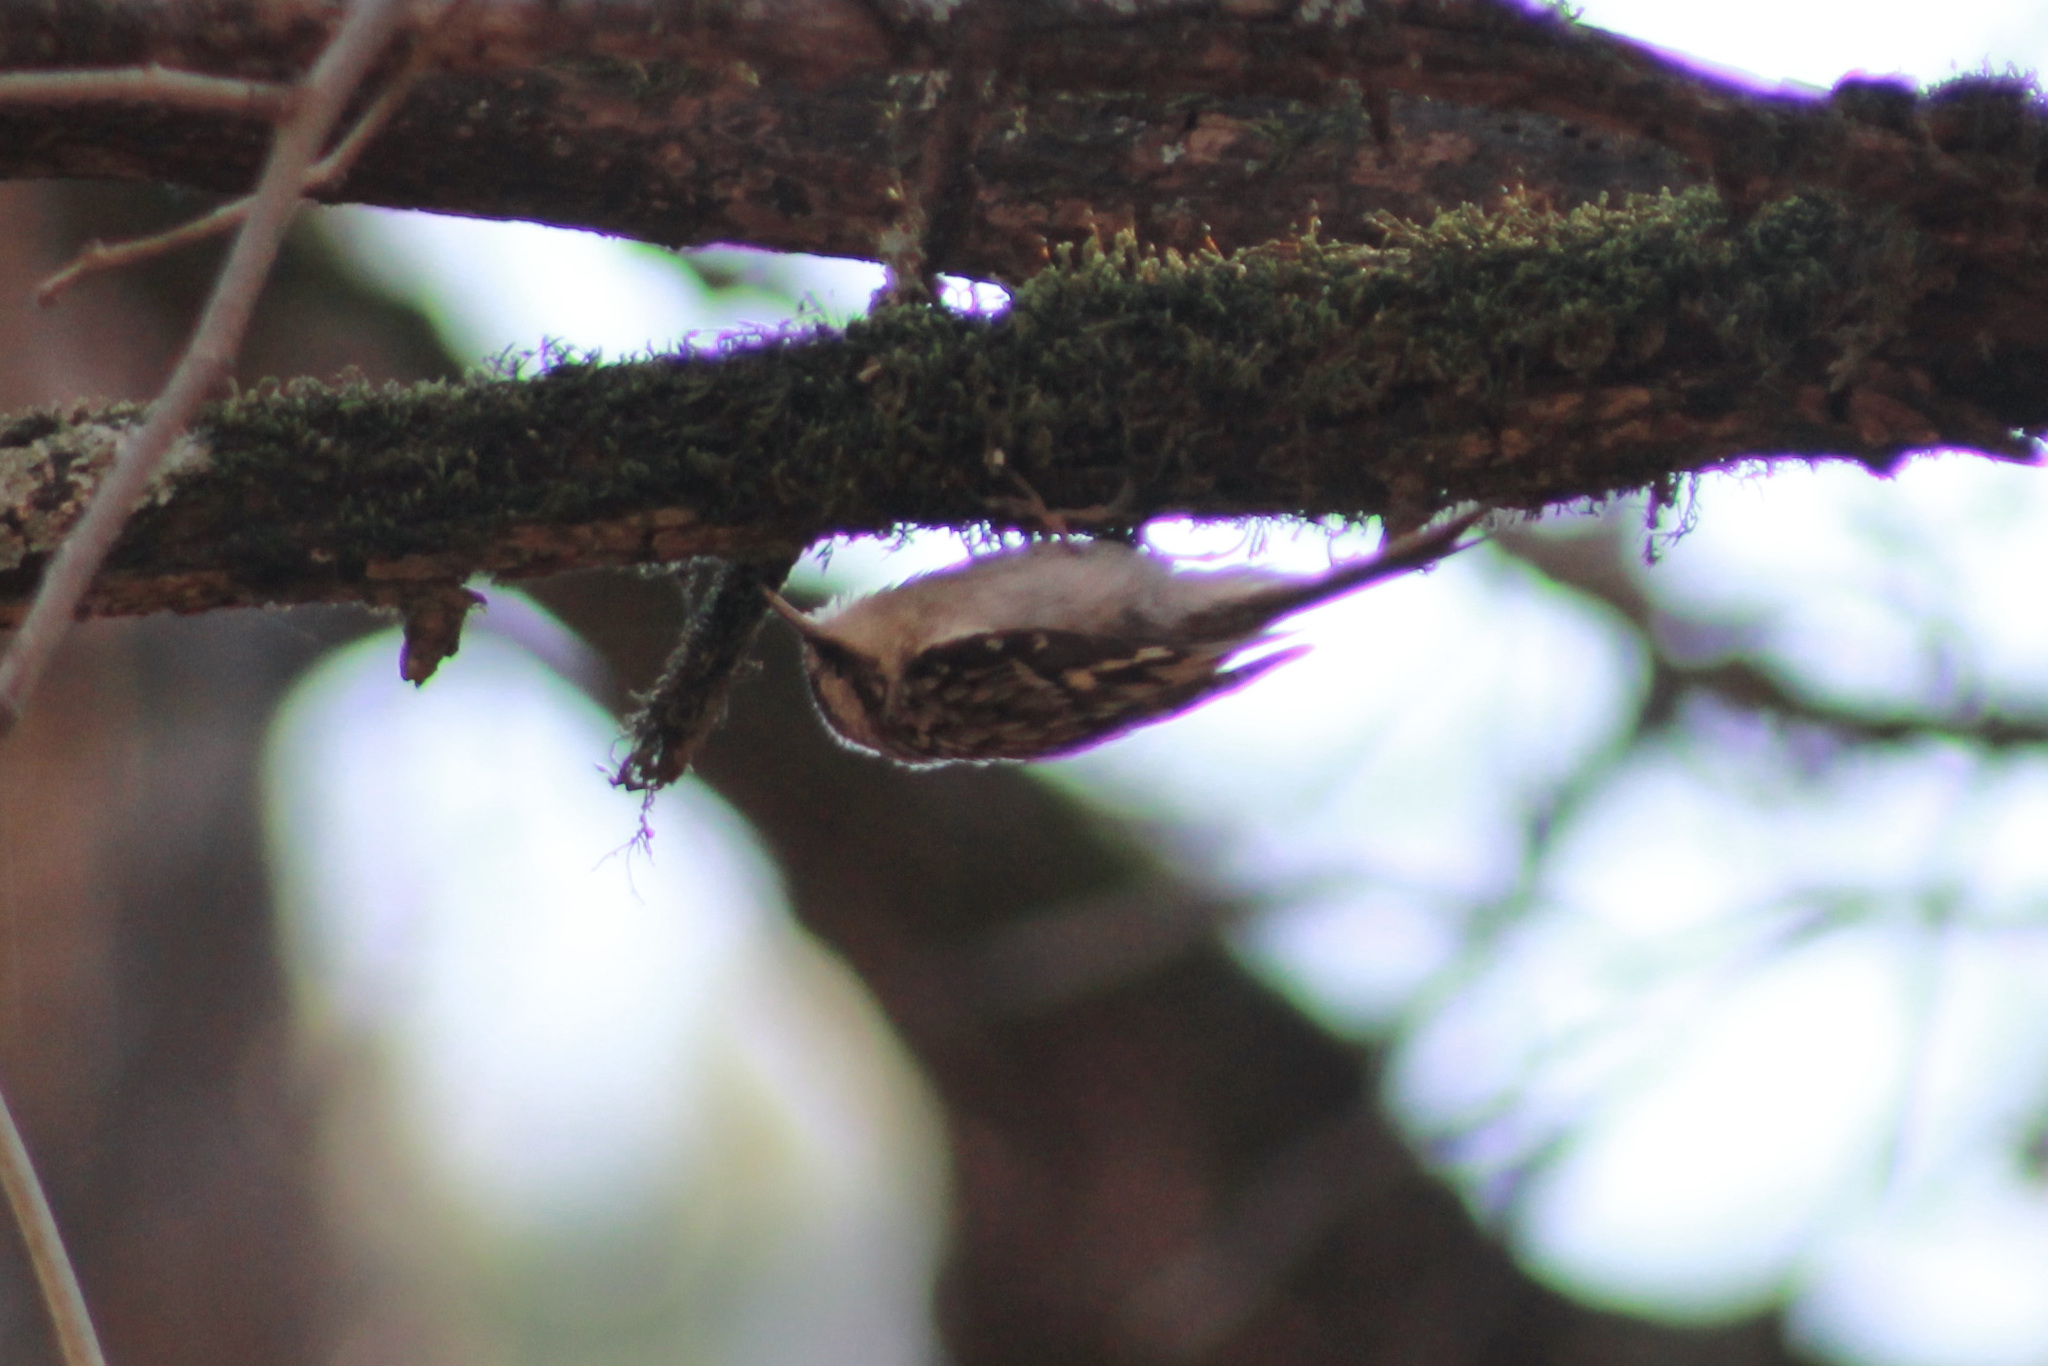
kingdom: Animalia
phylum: Chordata
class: Aves
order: Passeriformes
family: Certhiidae
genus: Certhia
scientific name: Certhia americana
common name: Brown creeper
